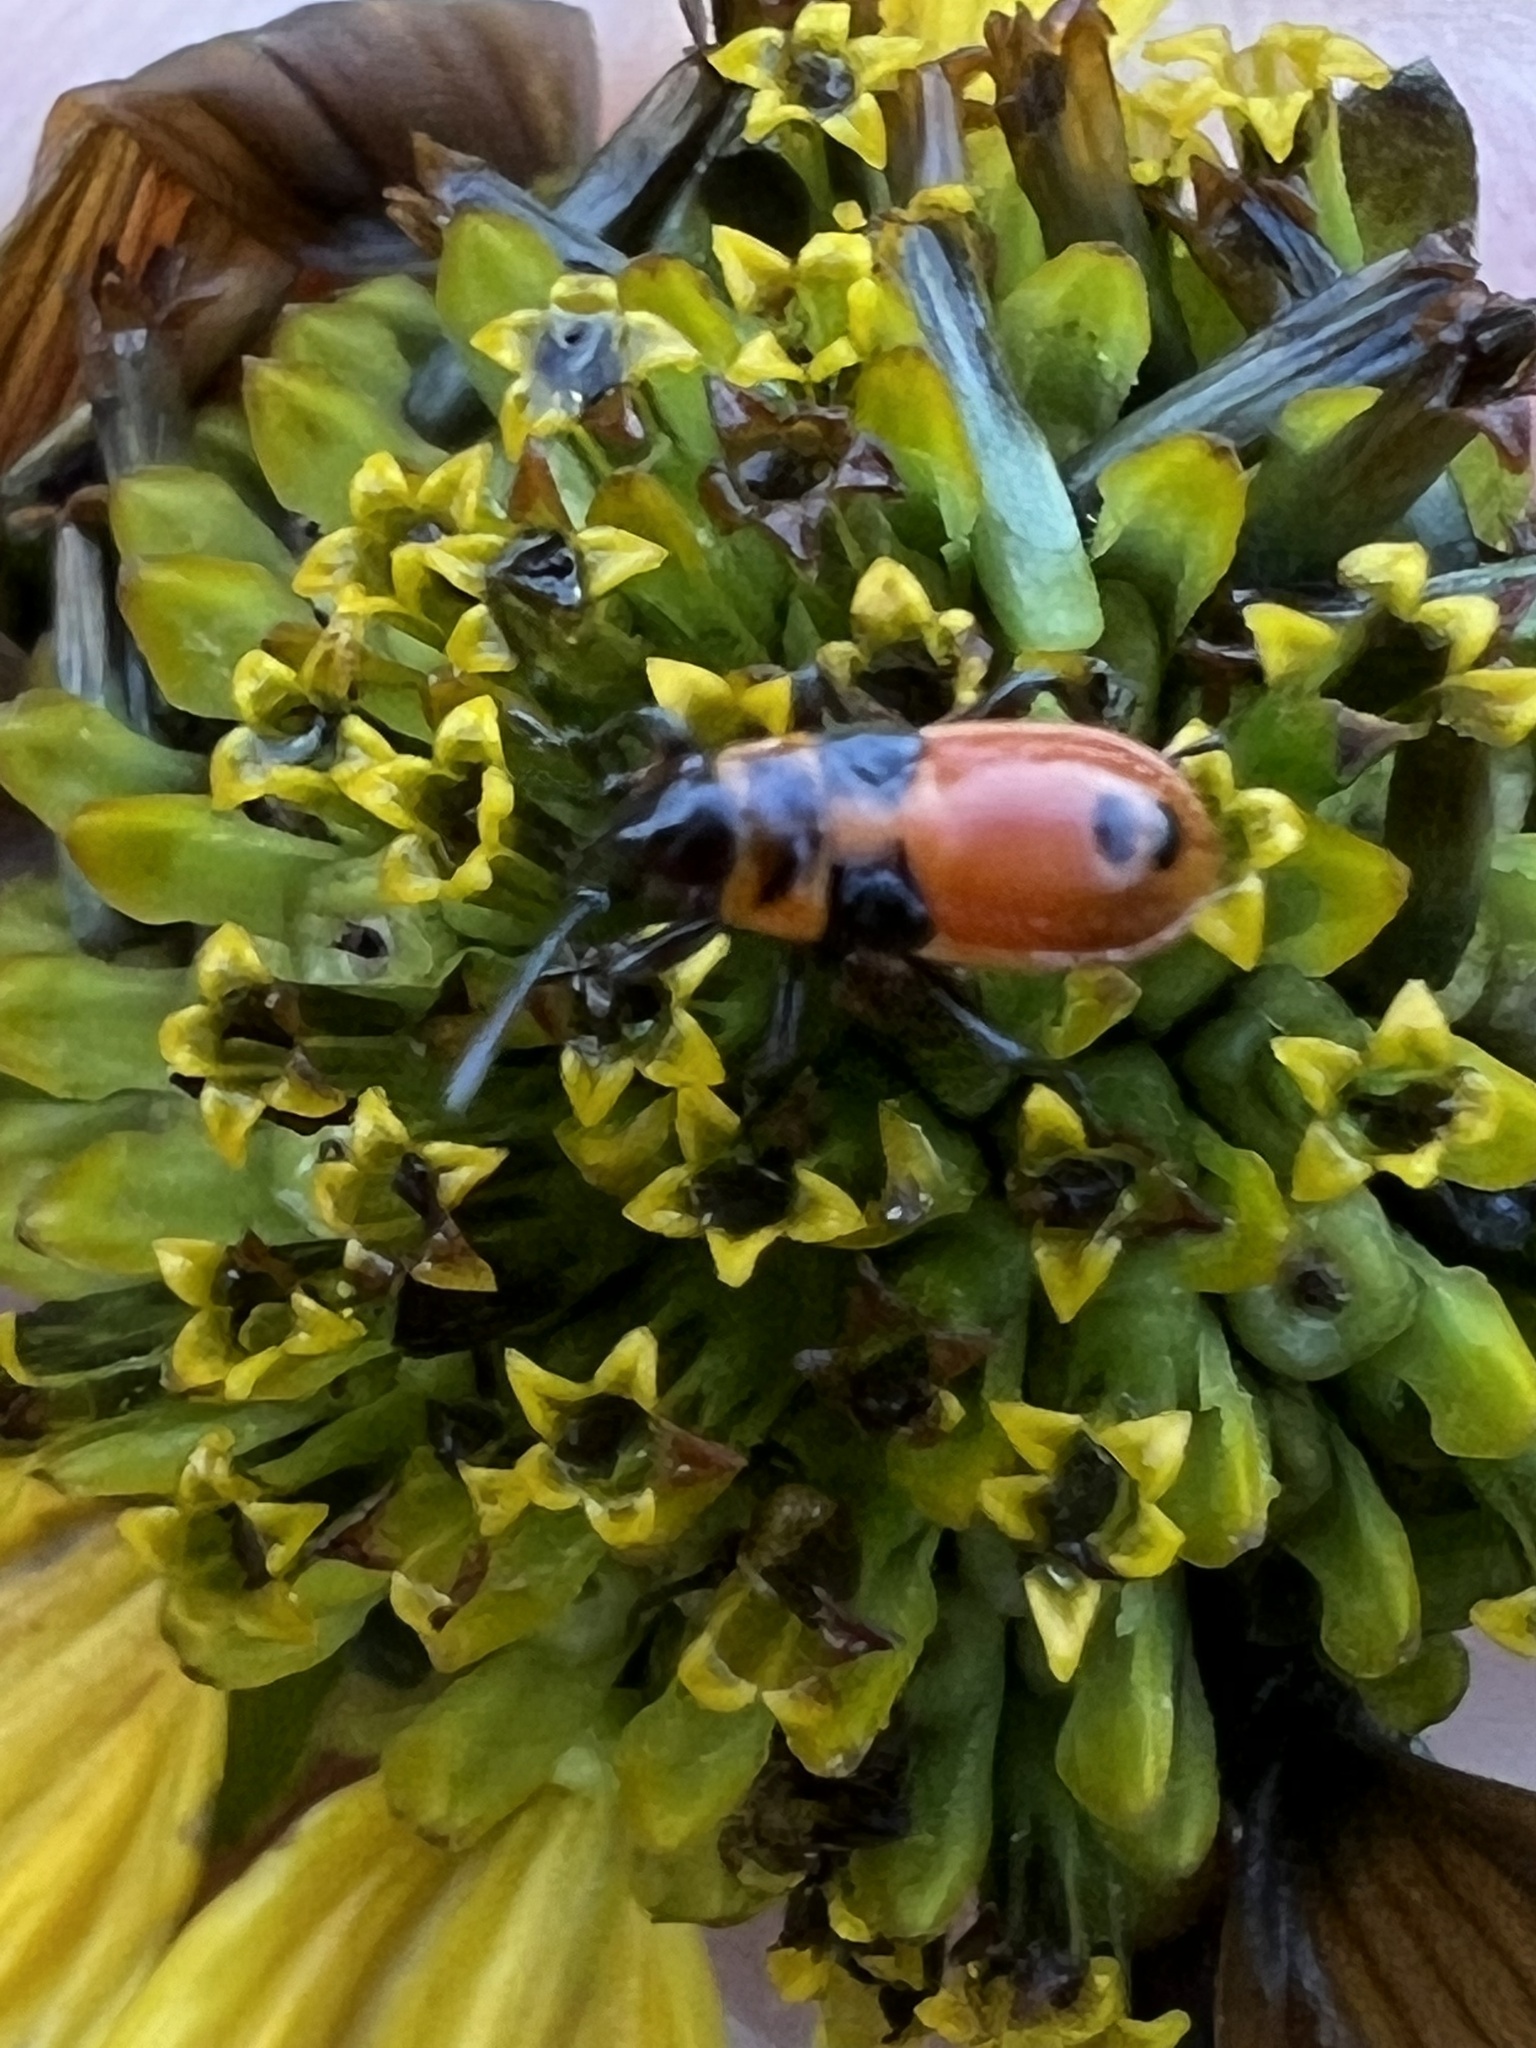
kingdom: Animalia
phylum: Arthropoda
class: Insecta
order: Hemiptera
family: Lygaeidae
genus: Lygaeus
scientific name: Lygaeus turcicus
